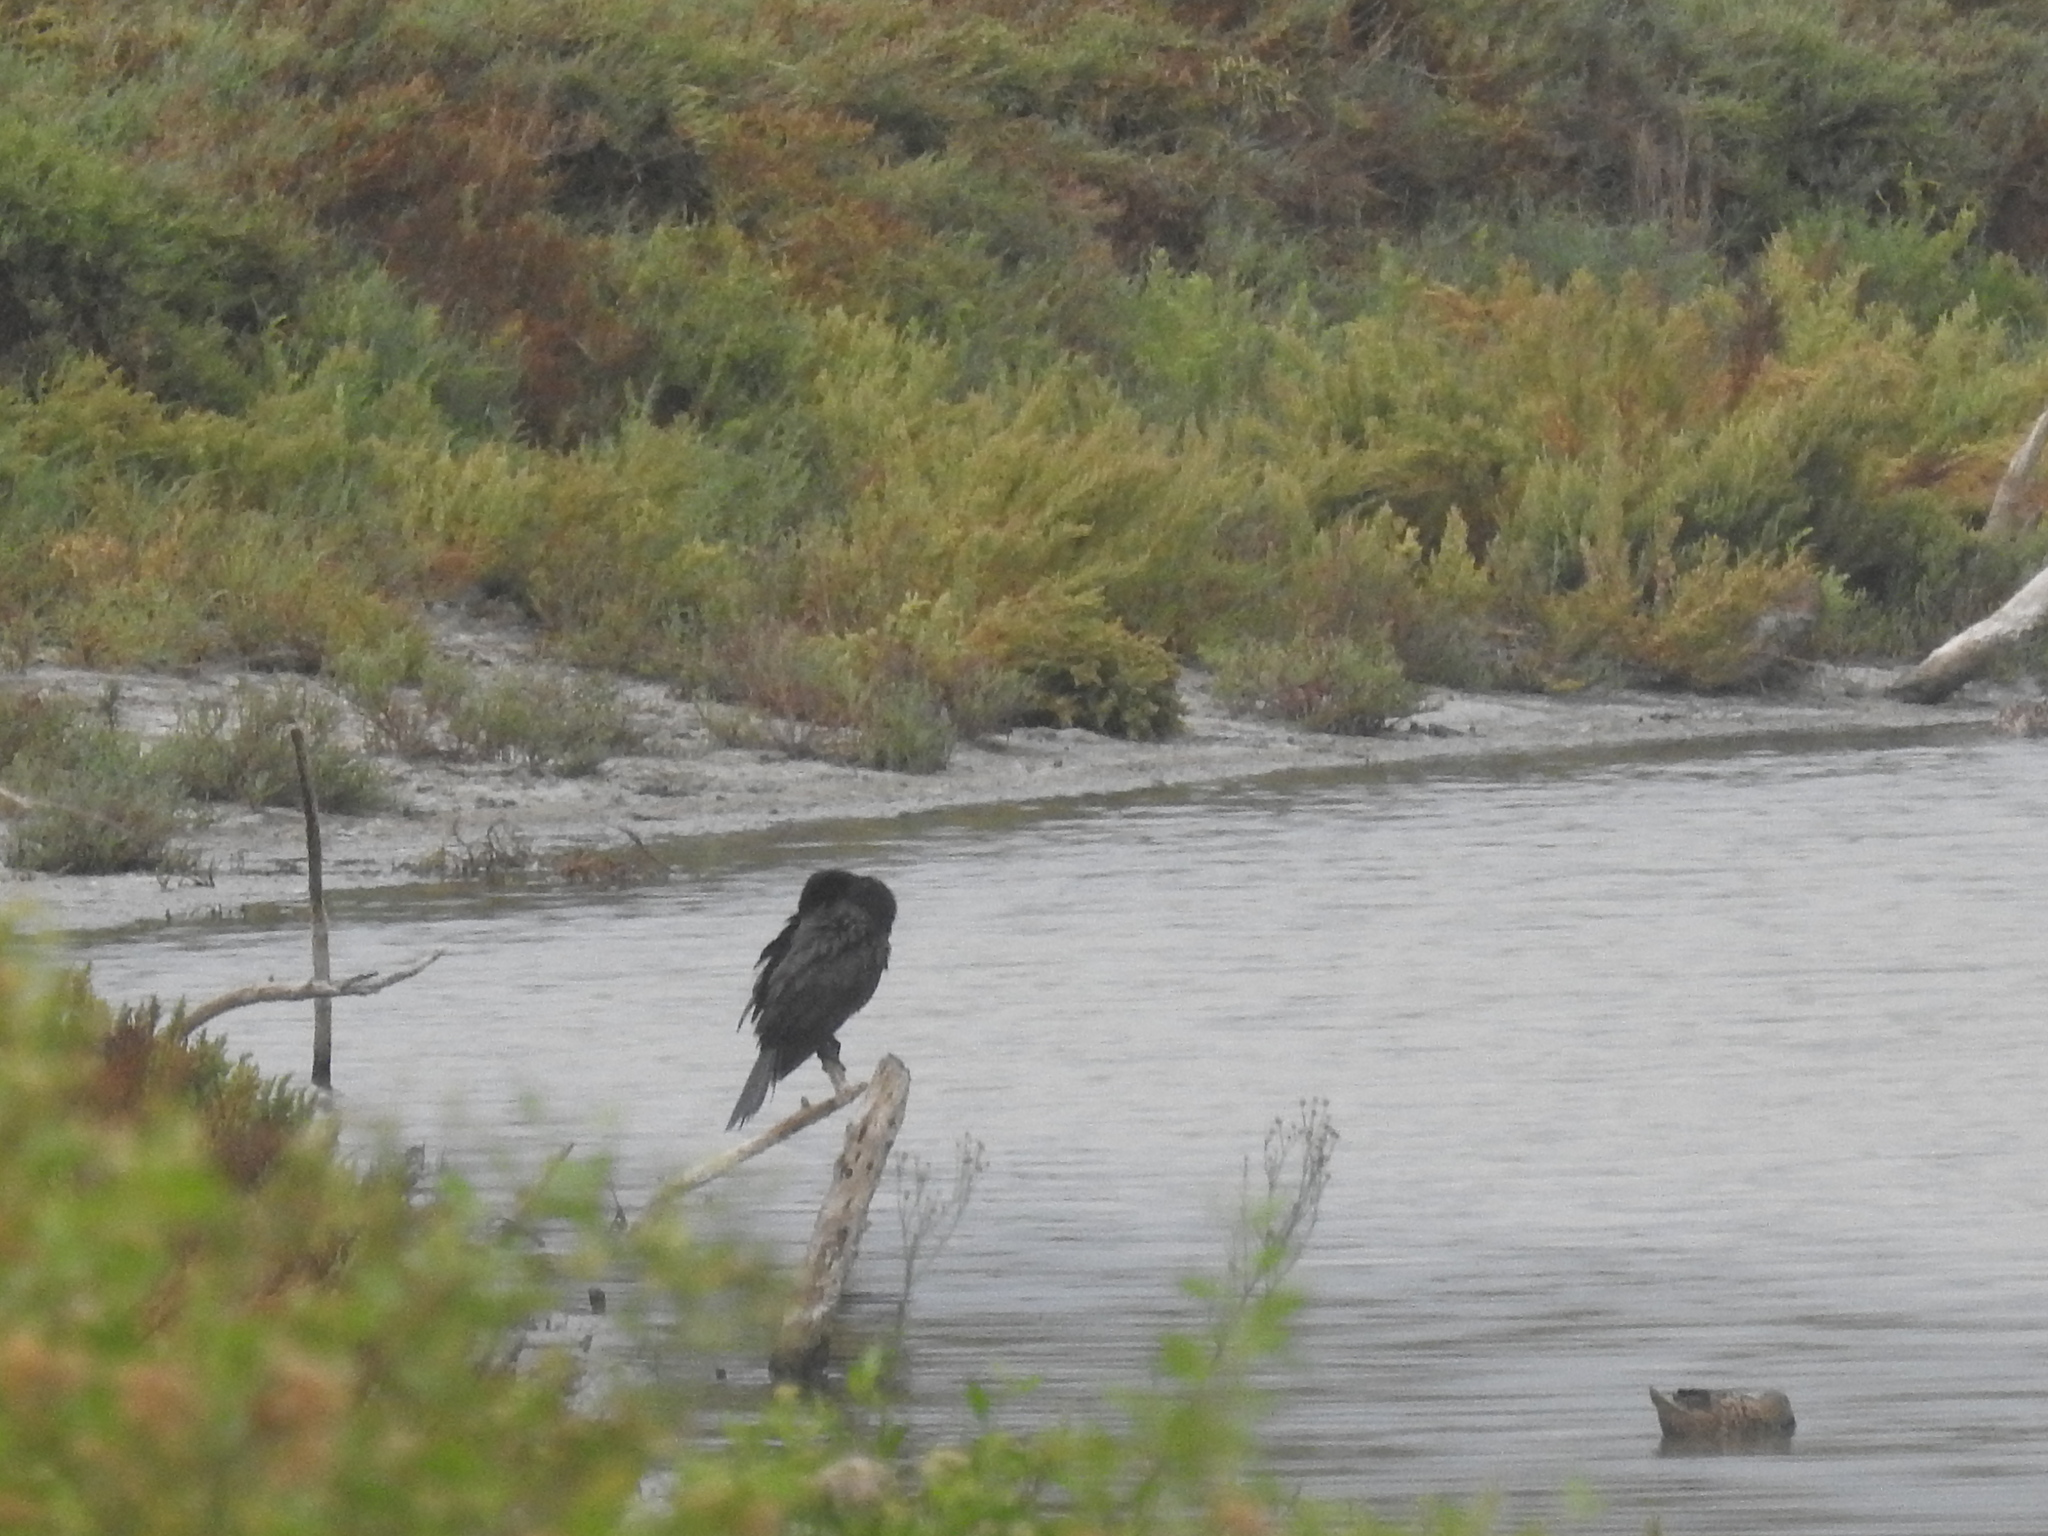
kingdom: Animalia
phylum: Chordata
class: Aves
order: Suliformes
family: Phalacrocoracidae
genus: Phalacrocorax
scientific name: Phalacrocorax brasilianus
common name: Neotropic cormorant
